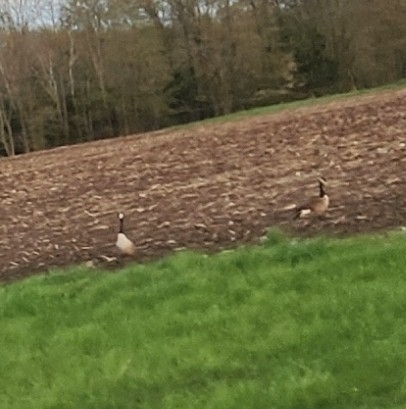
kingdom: Animalia
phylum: Chordata
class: Aves
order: Anseriformes
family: Anatidae
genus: Branta
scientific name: Branta canadensis
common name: Canada goose
